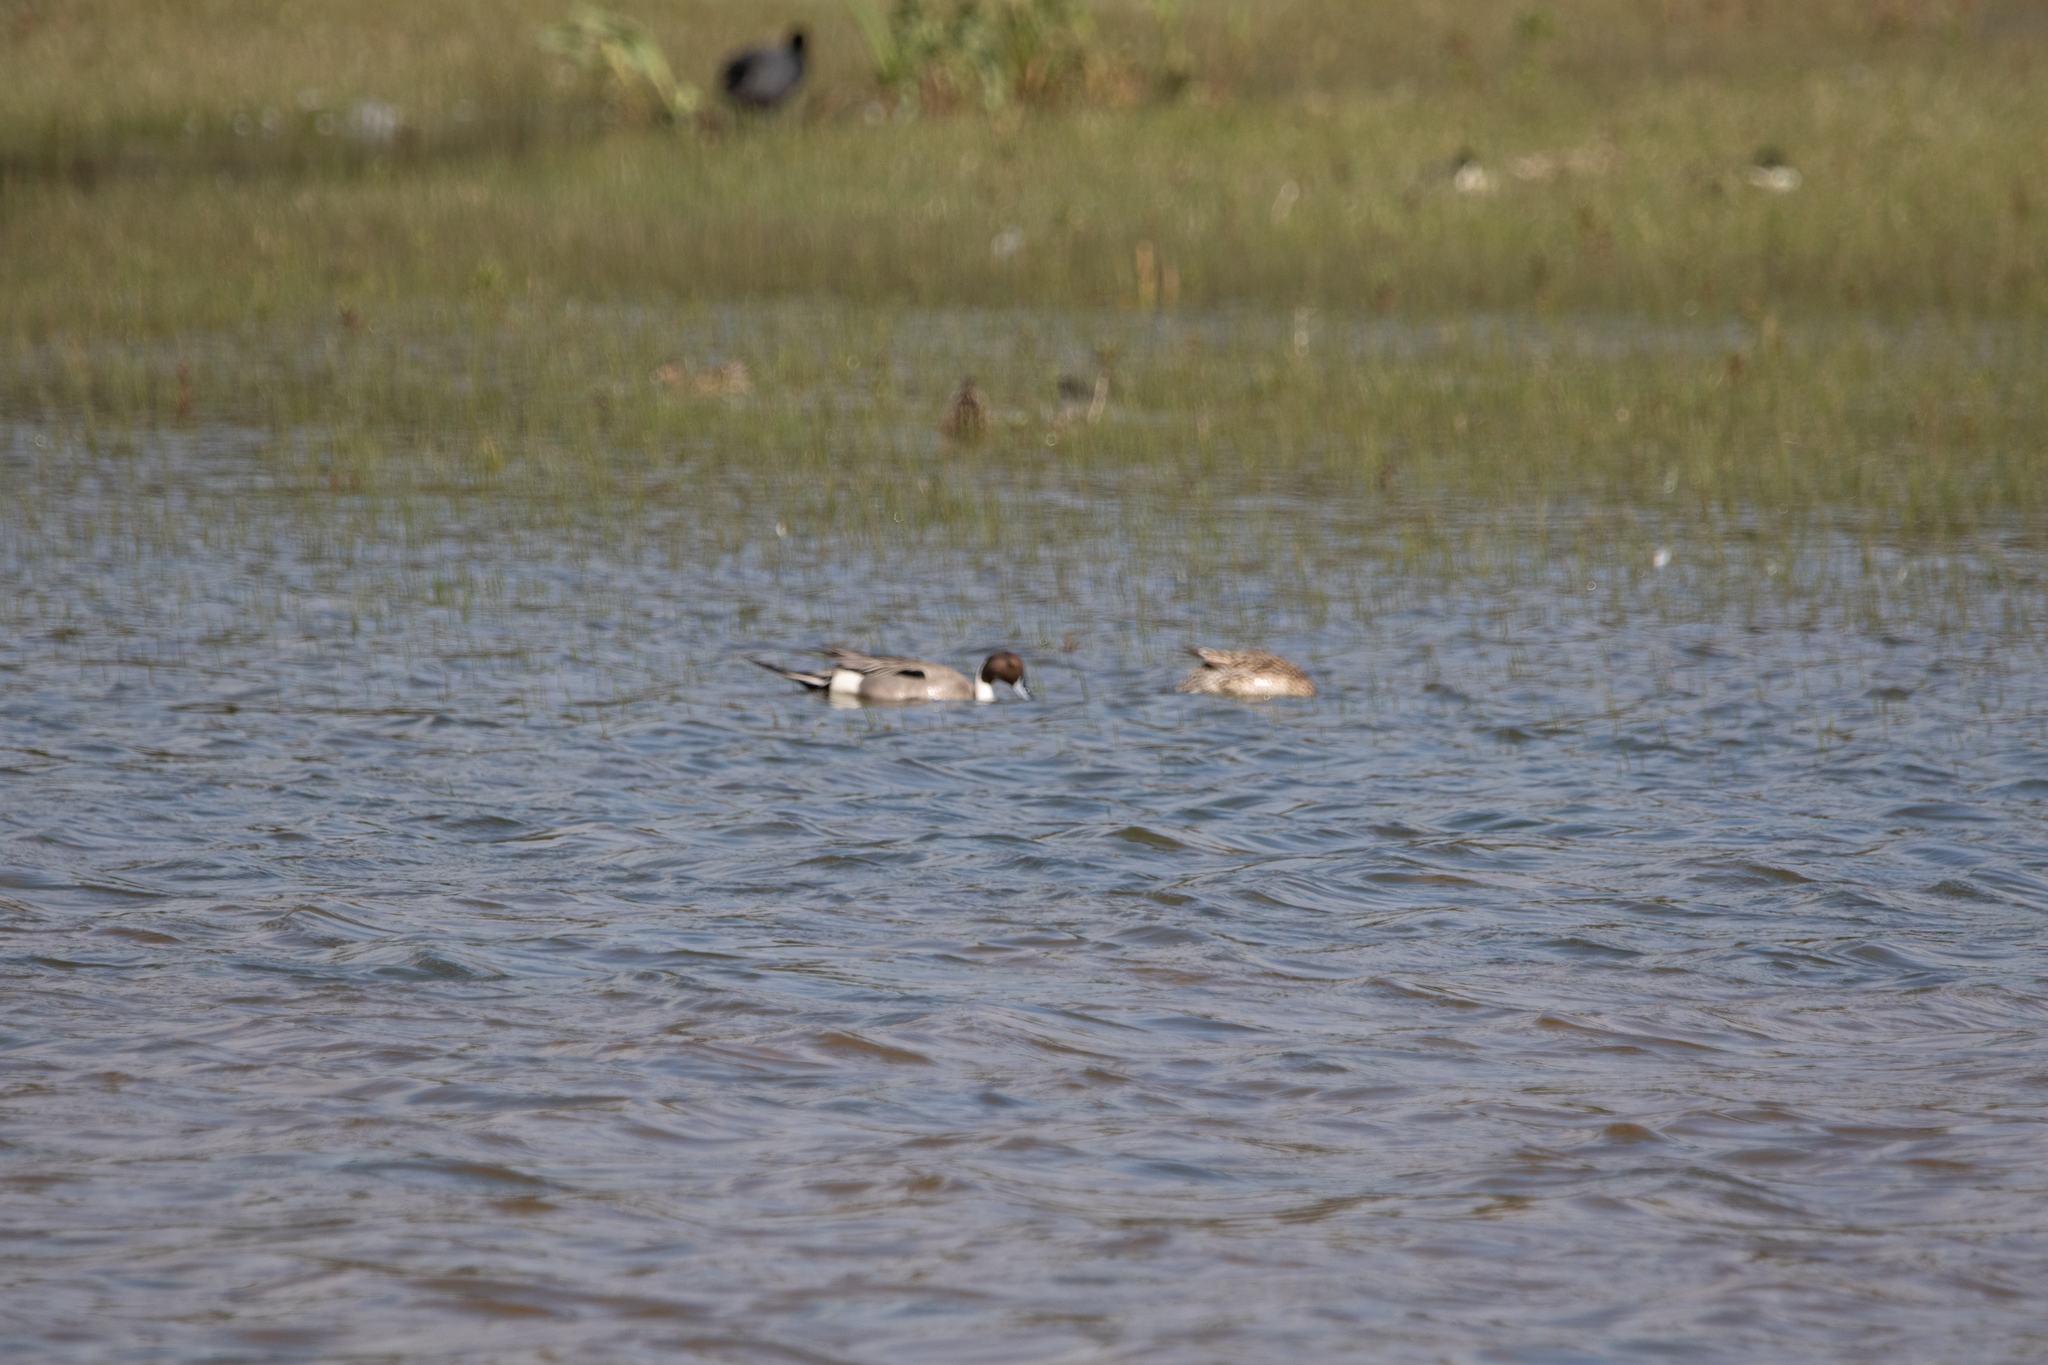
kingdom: Animalia
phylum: Chordata
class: Aves
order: Anseriformes
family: Anatidae
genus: Anas
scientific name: Anas acuta
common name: Northern pintail
